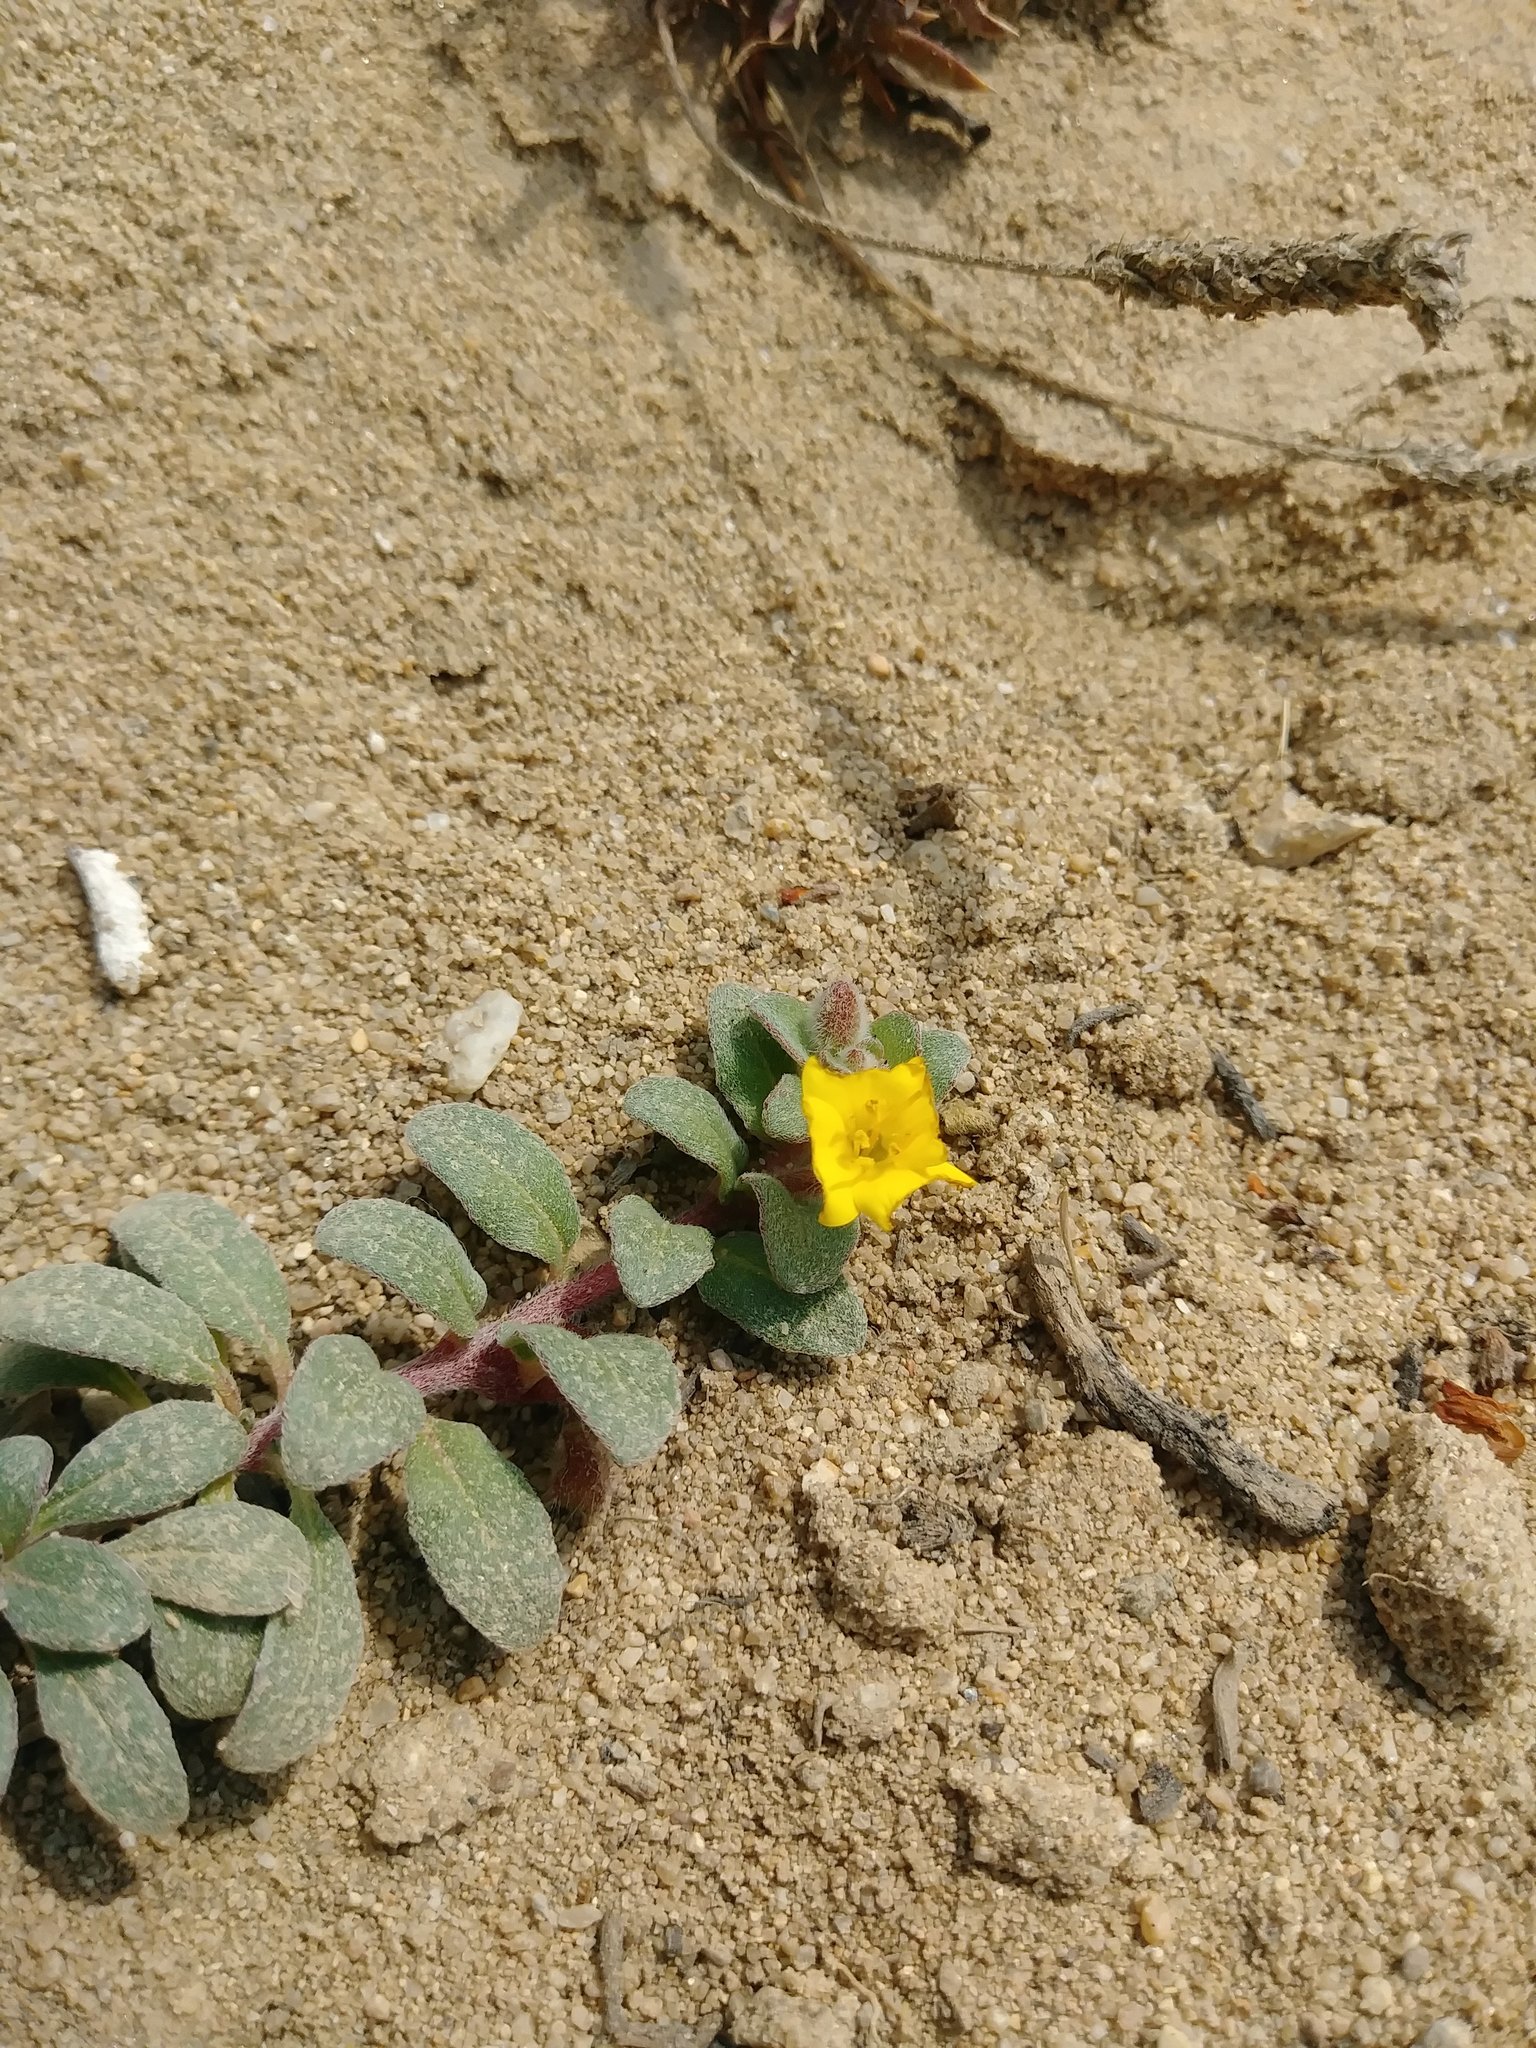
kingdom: Plantae
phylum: Tracheophyta
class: Magnoliopsida
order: Myrtales
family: Onagraceae
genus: Camissoniopsis
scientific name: Camissoniopsis cheiranthifolia
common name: Beach suncup
